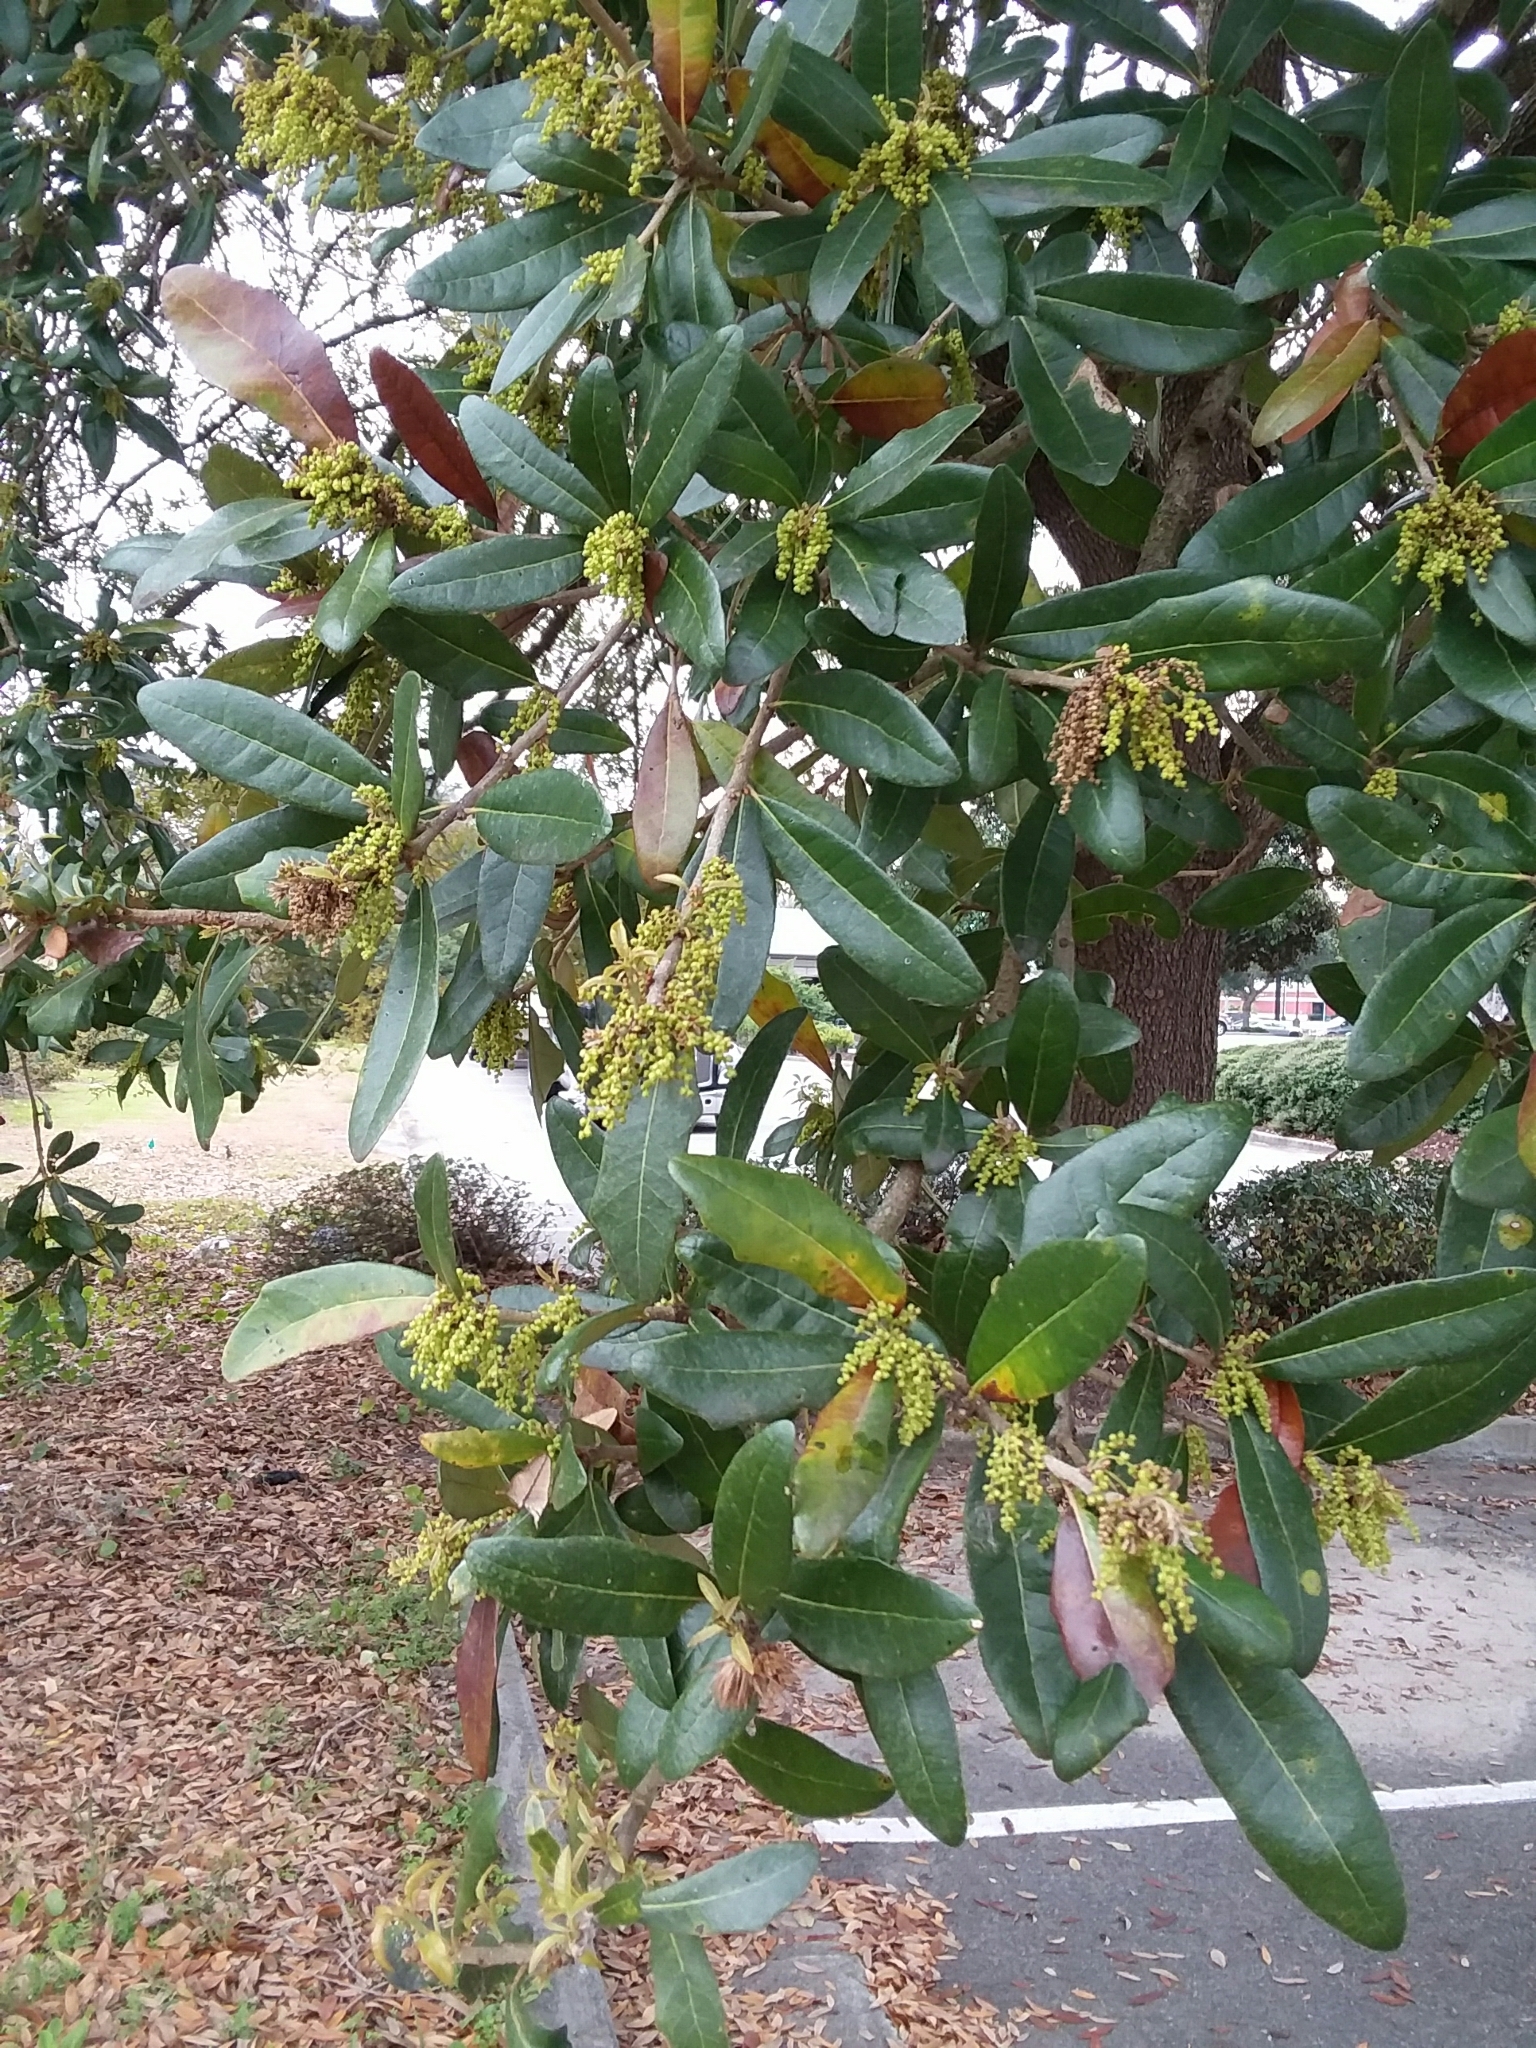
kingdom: Plantae
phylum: Tracheophyta
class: Magnoliopsida
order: Fagales
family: Fagaceae
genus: Quercus
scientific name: Quercus virginiana
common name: Southern live oak
